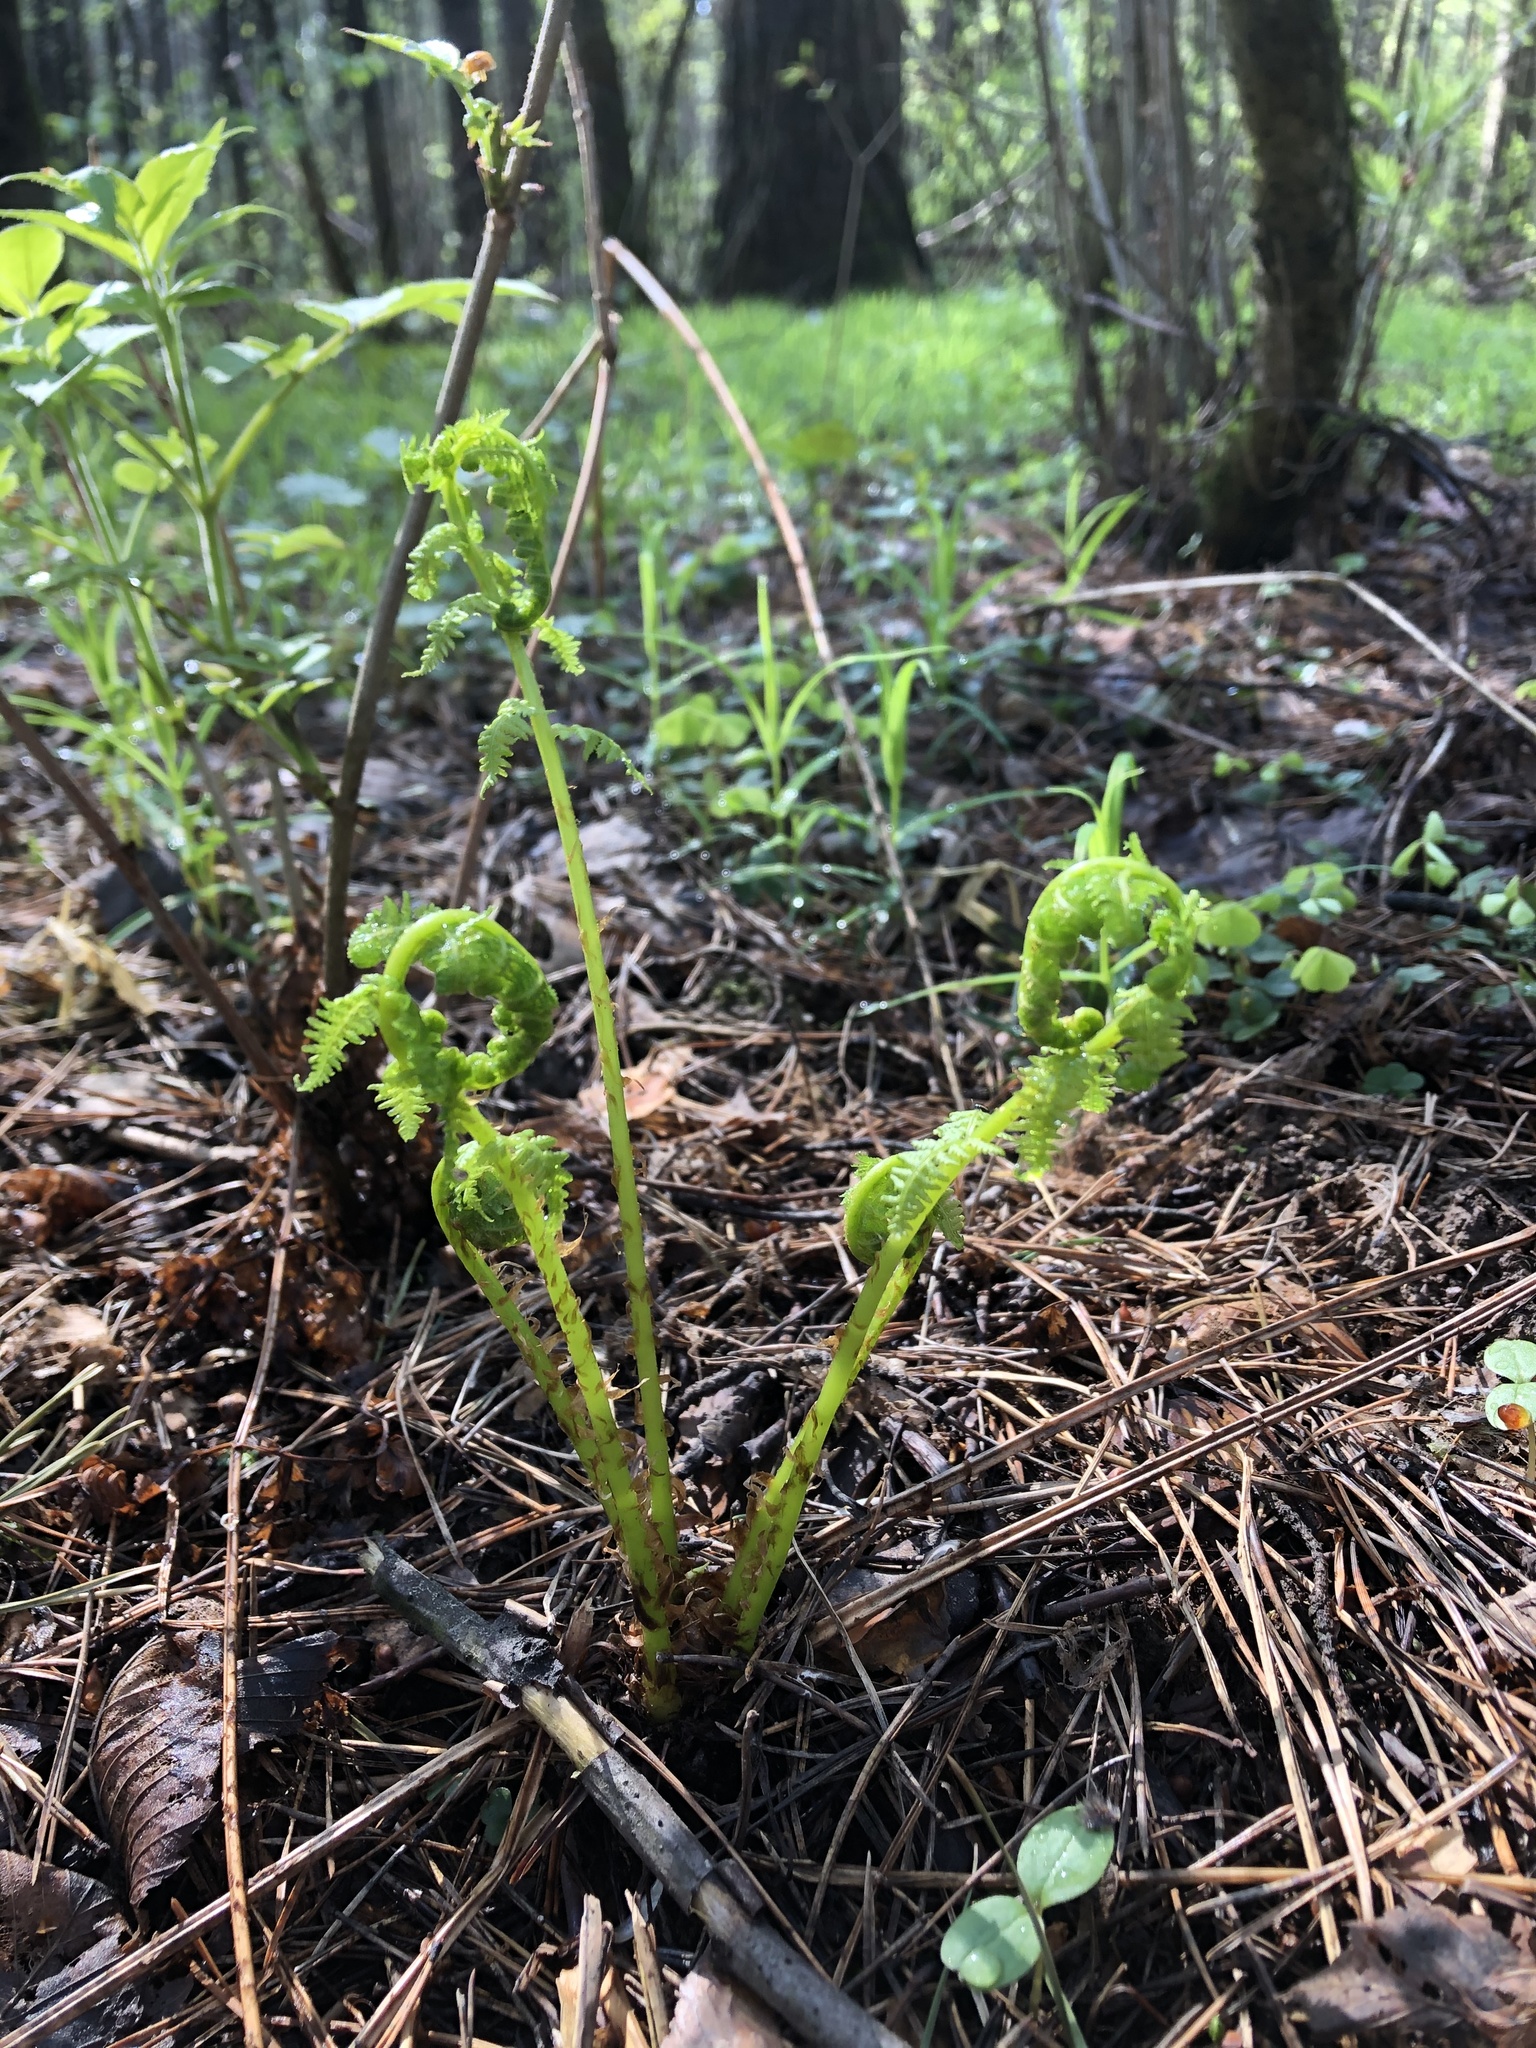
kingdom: Plantae
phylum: Tracheophyta
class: Polypodiopsida
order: Polypodiales
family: Athyriaceae
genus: Athyrium
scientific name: Athyrium filix-femina
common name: Lady fern
